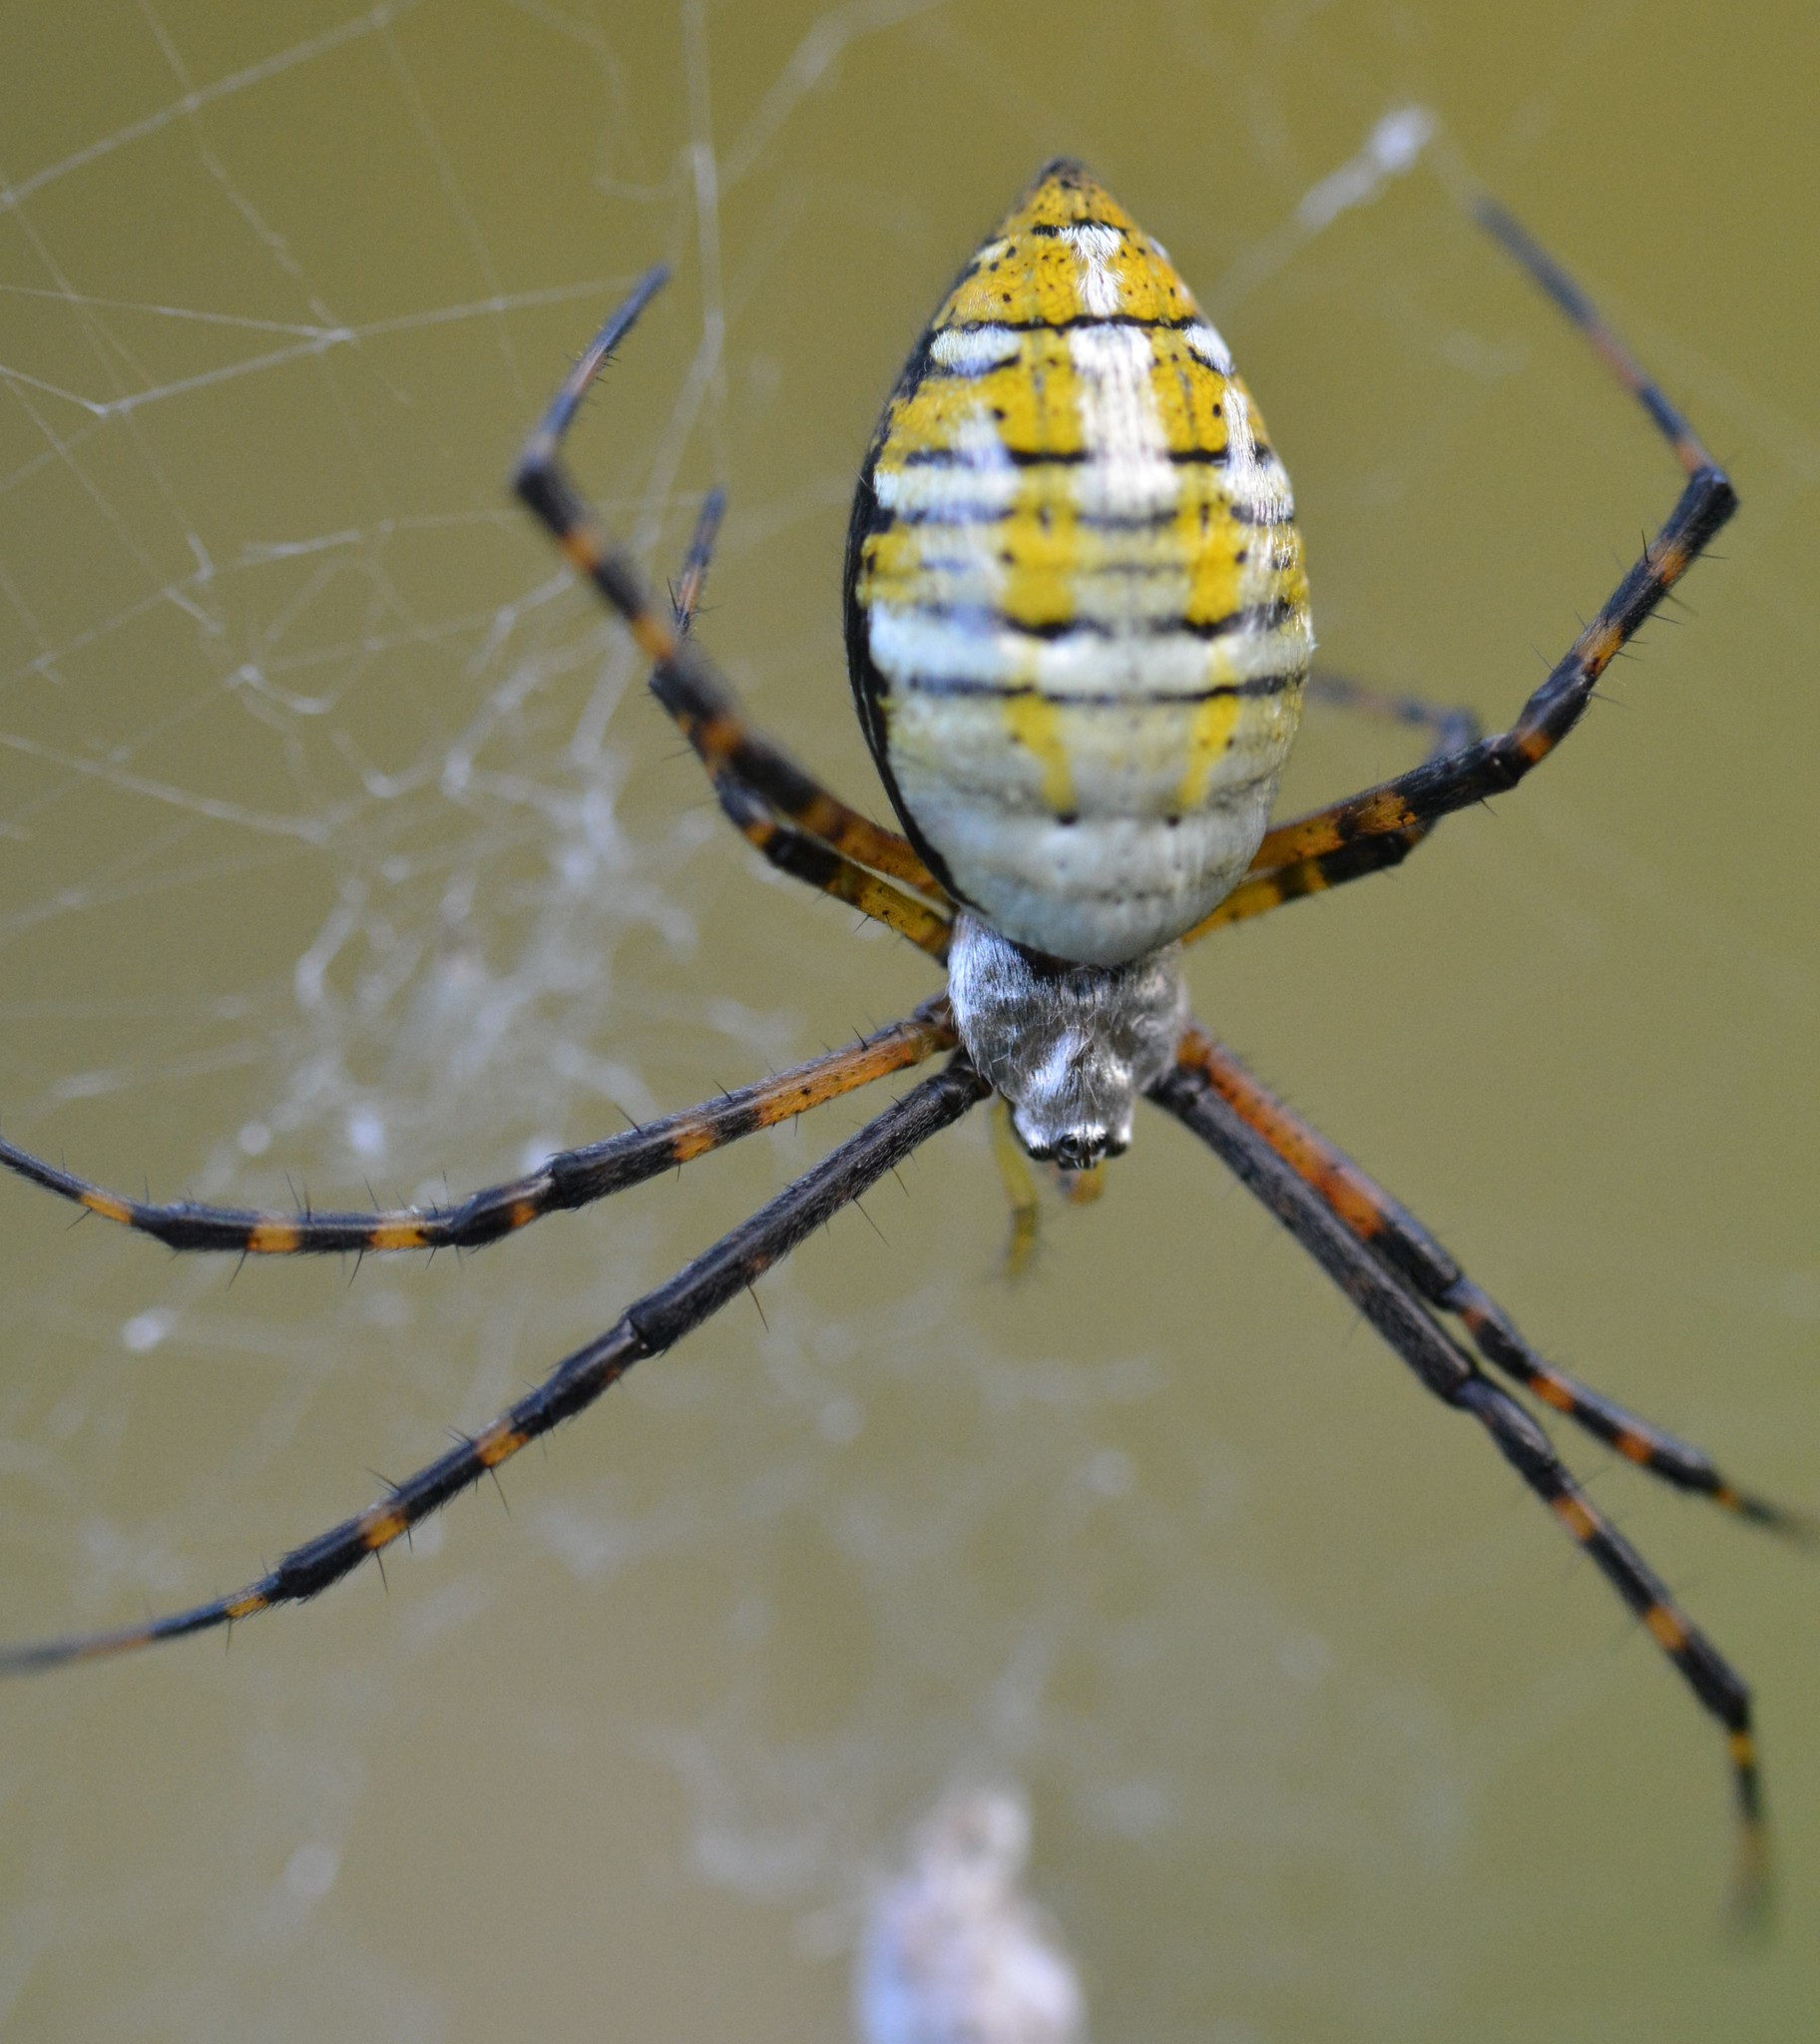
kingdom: Animalia
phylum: Arthropoda
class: Arachnida
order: Araneae
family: Araneidae
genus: Argiope
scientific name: Argiope trifasciata
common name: Banded garden spider
